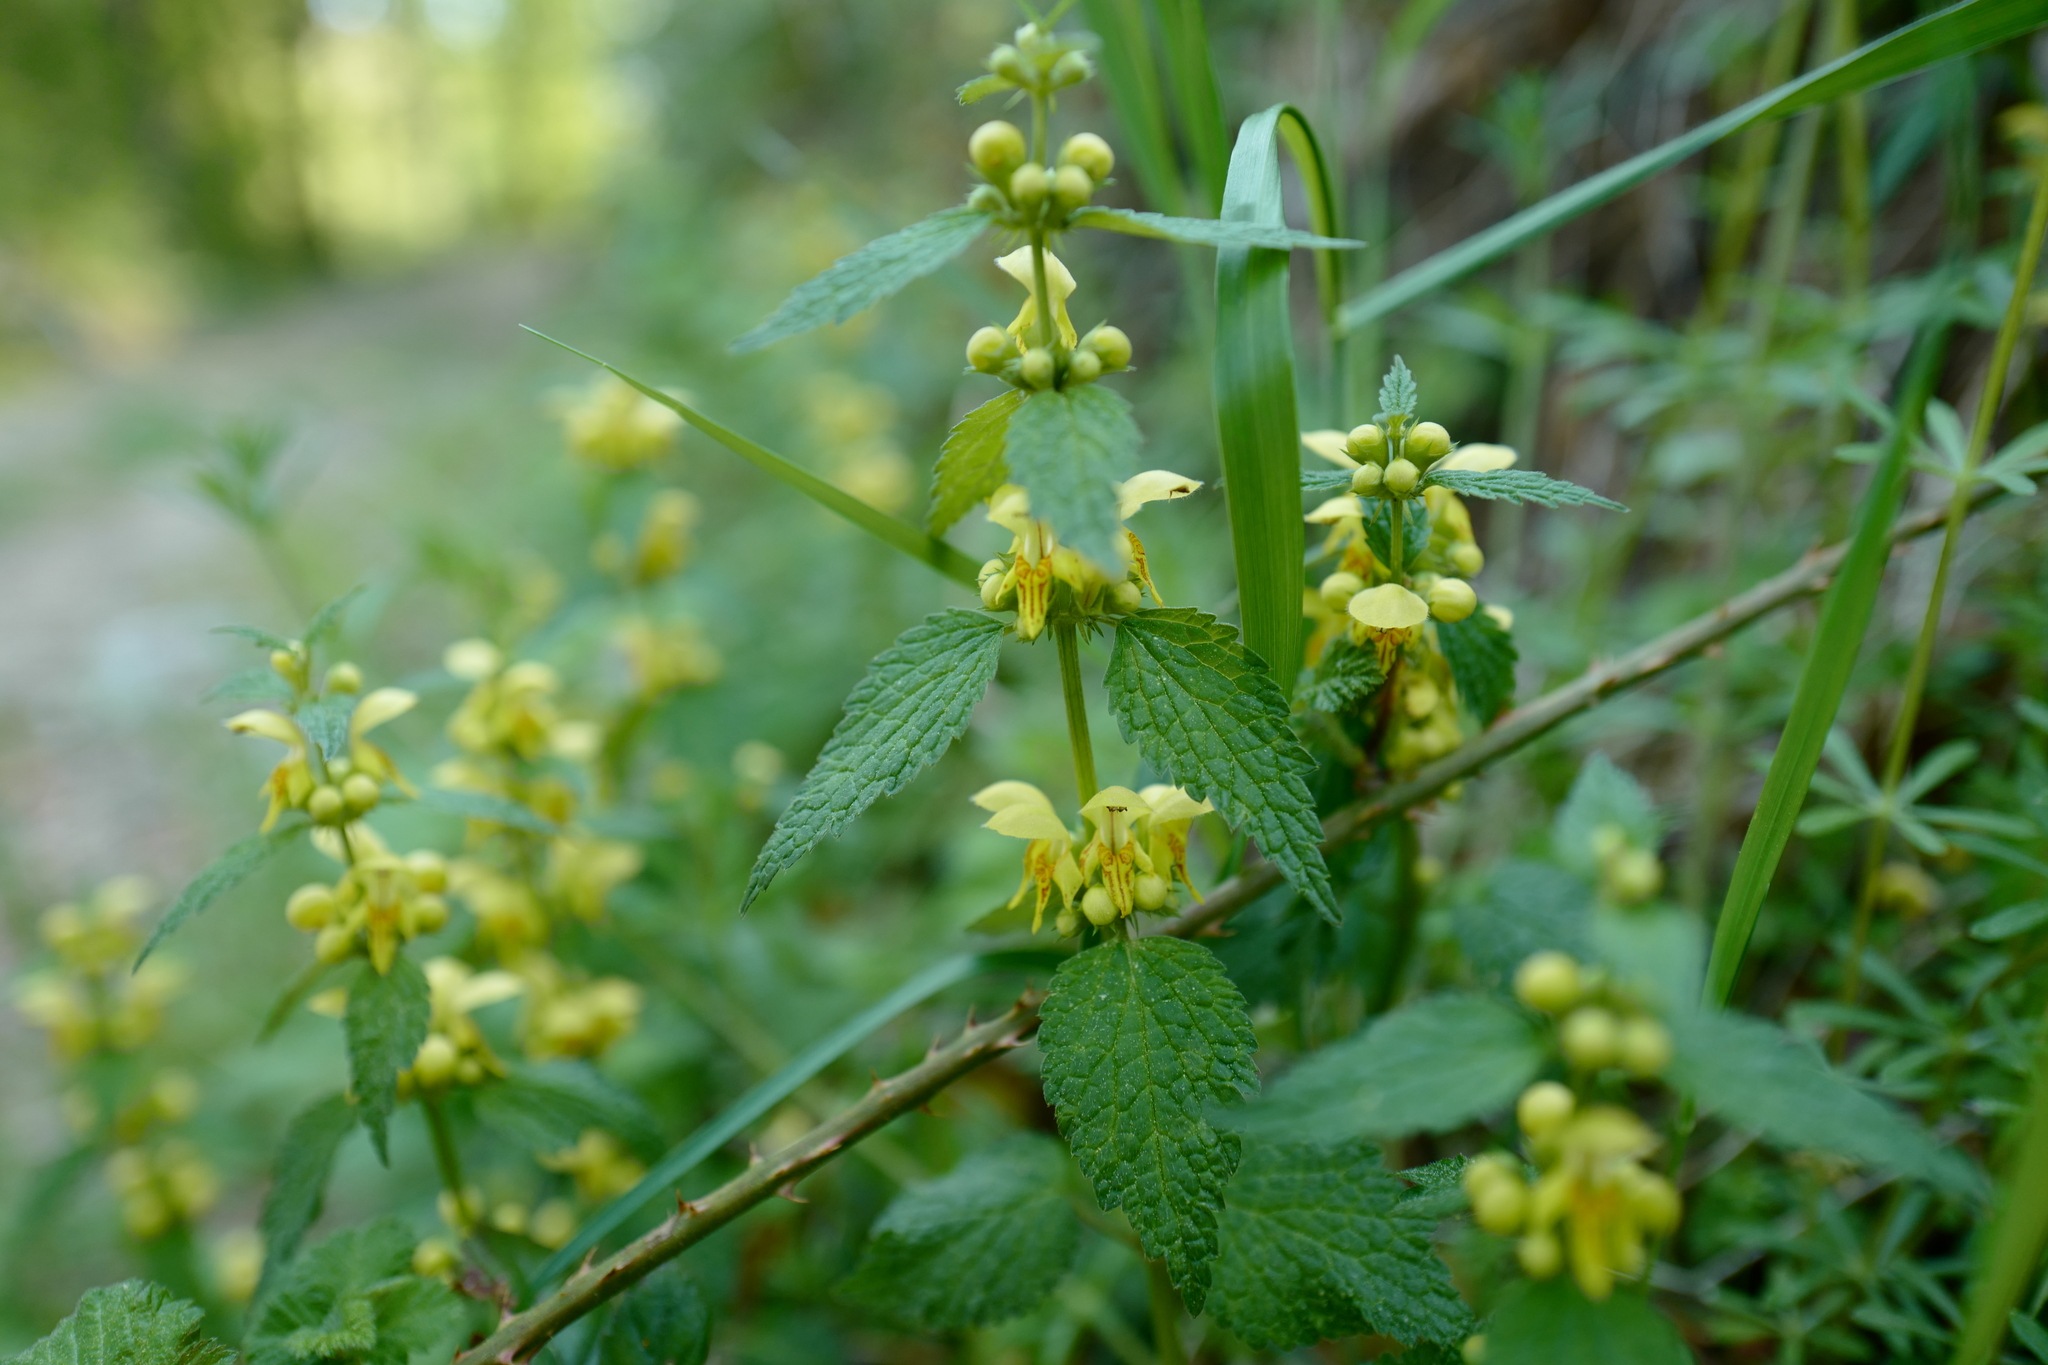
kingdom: Plantae
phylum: Tracheophyta
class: Magnoliopsida
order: Lamiales
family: Lamiaceae
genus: Lamium
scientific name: Lamium galeobdolon
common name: Yellow archangel
